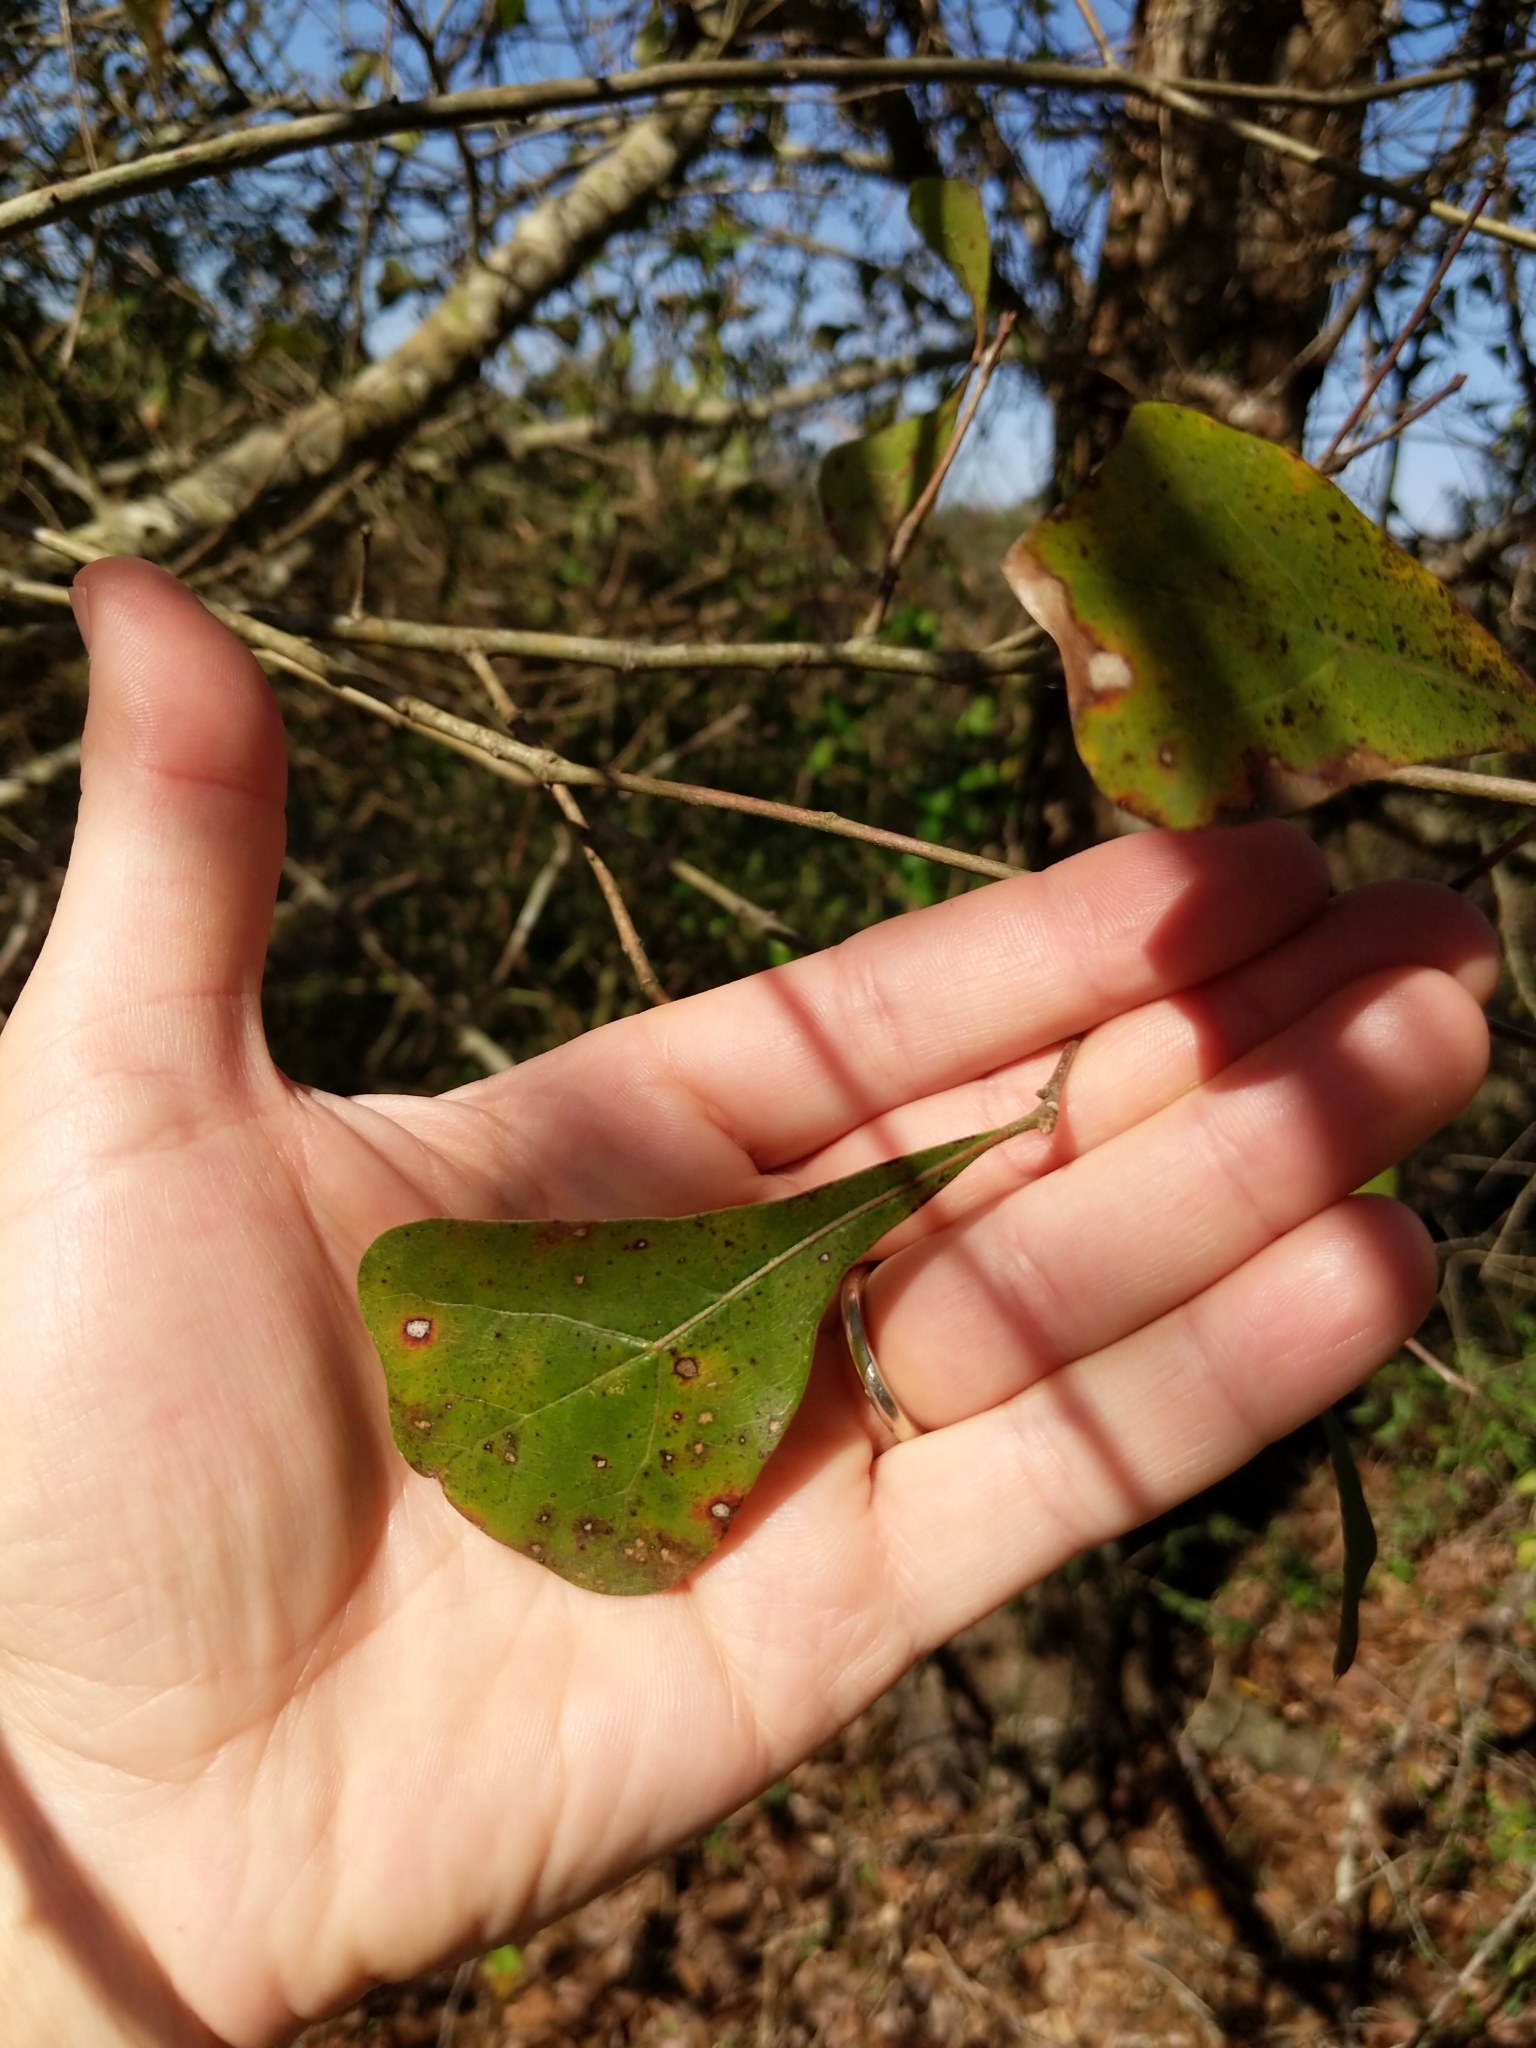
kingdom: Plantae
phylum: Tracheophyta
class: Magnoliopsida
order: Fagales
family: Fagaceae
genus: Quercus
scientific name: Quercus nigra
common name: Water oak
